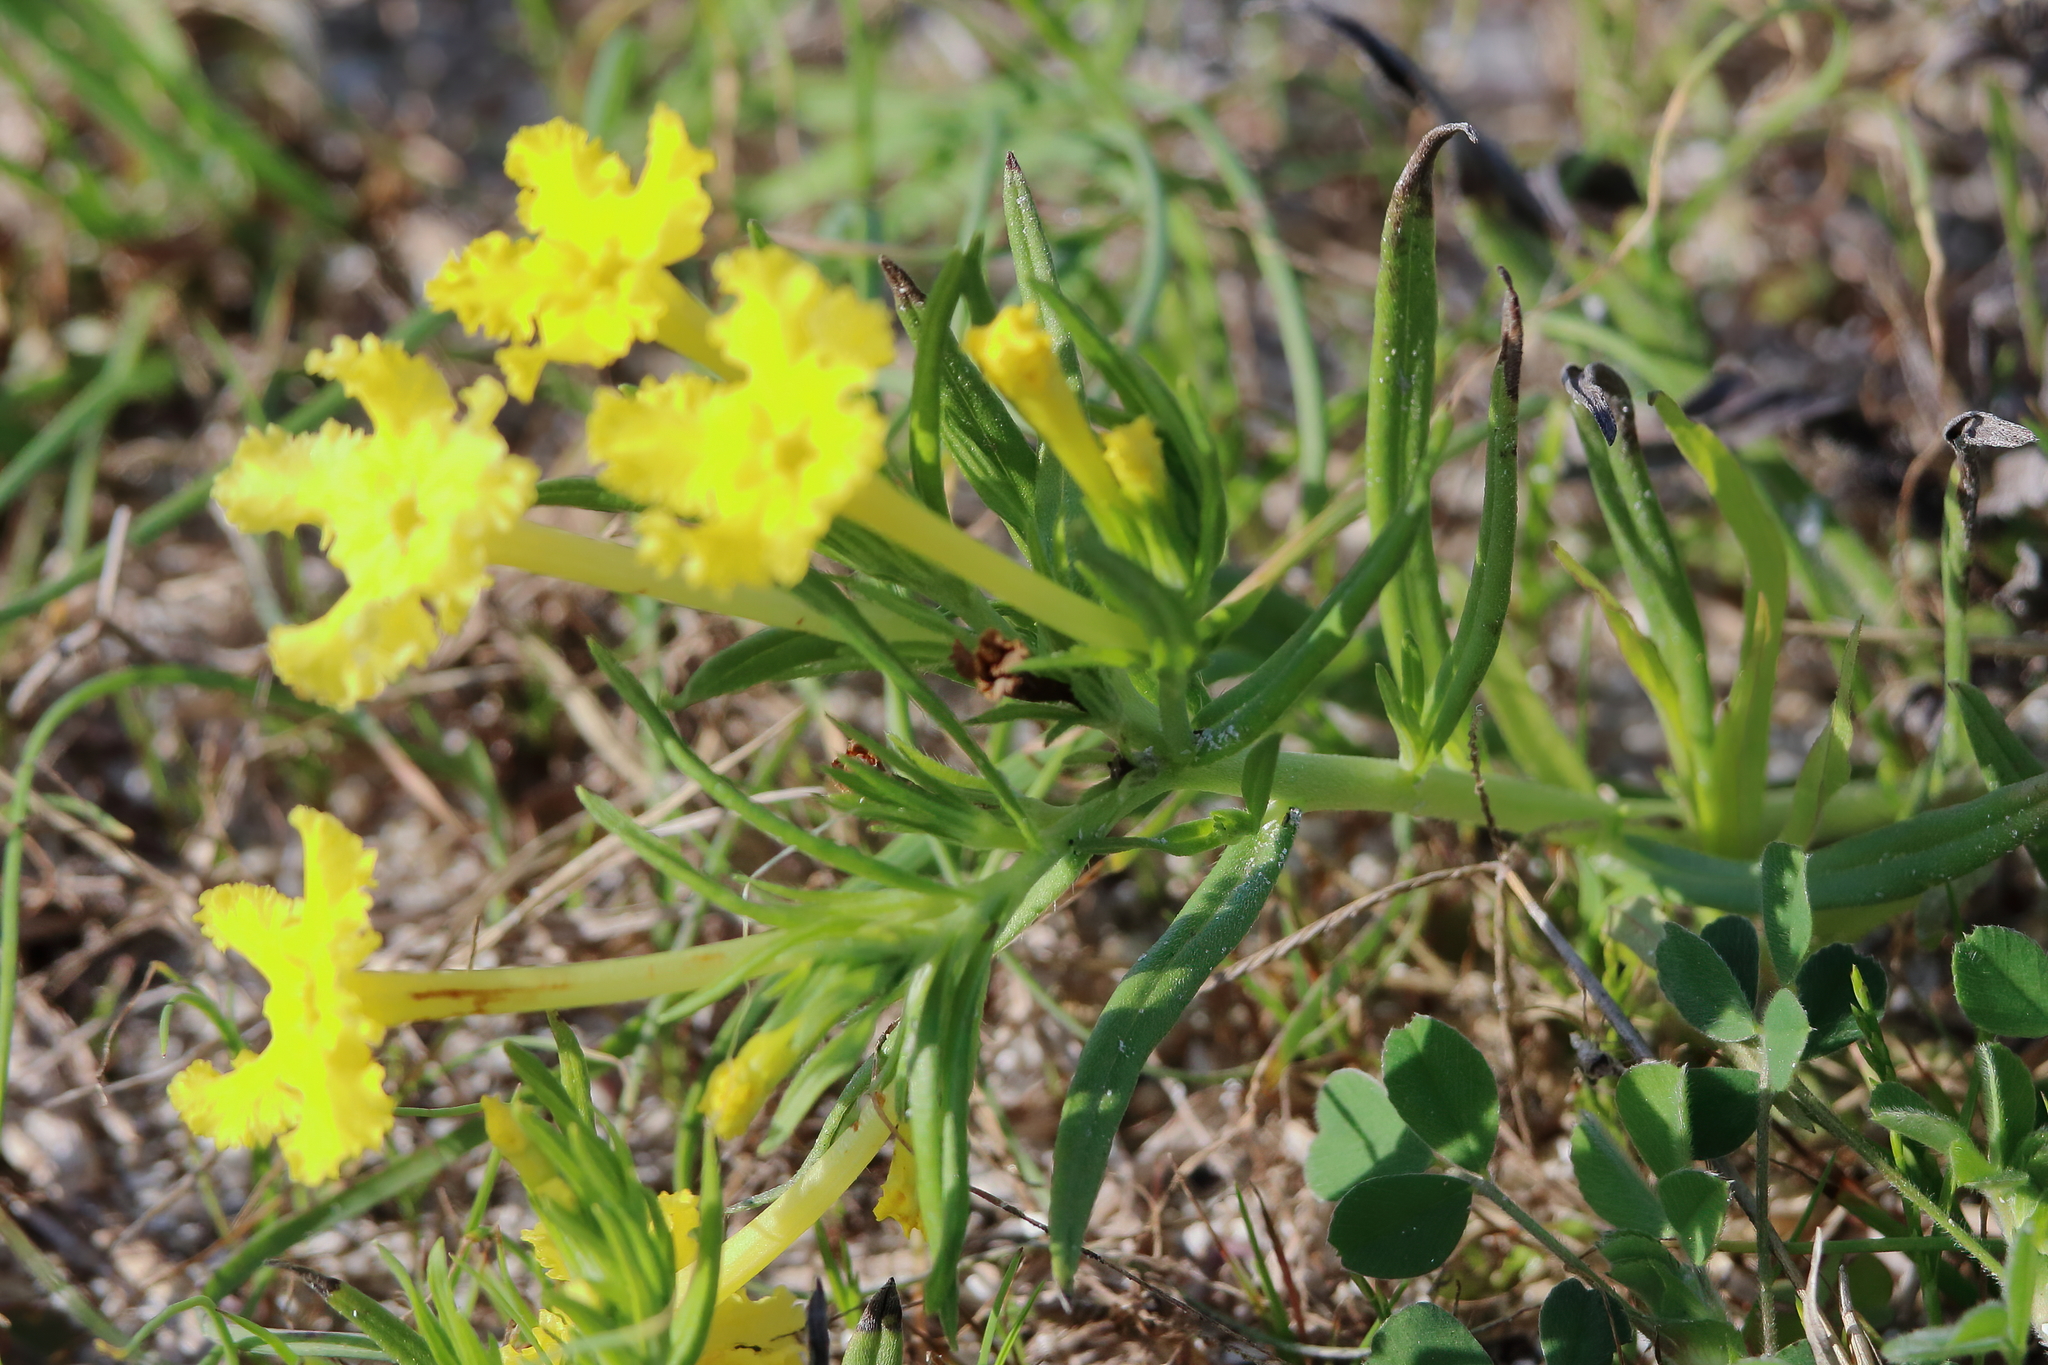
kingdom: Plantae
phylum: Tracheophyta
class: Magnoliopsida
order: Boraginales
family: Boraginaceae
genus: Lithospermum
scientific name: Lithospermum incisum
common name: Fringed gromwell
